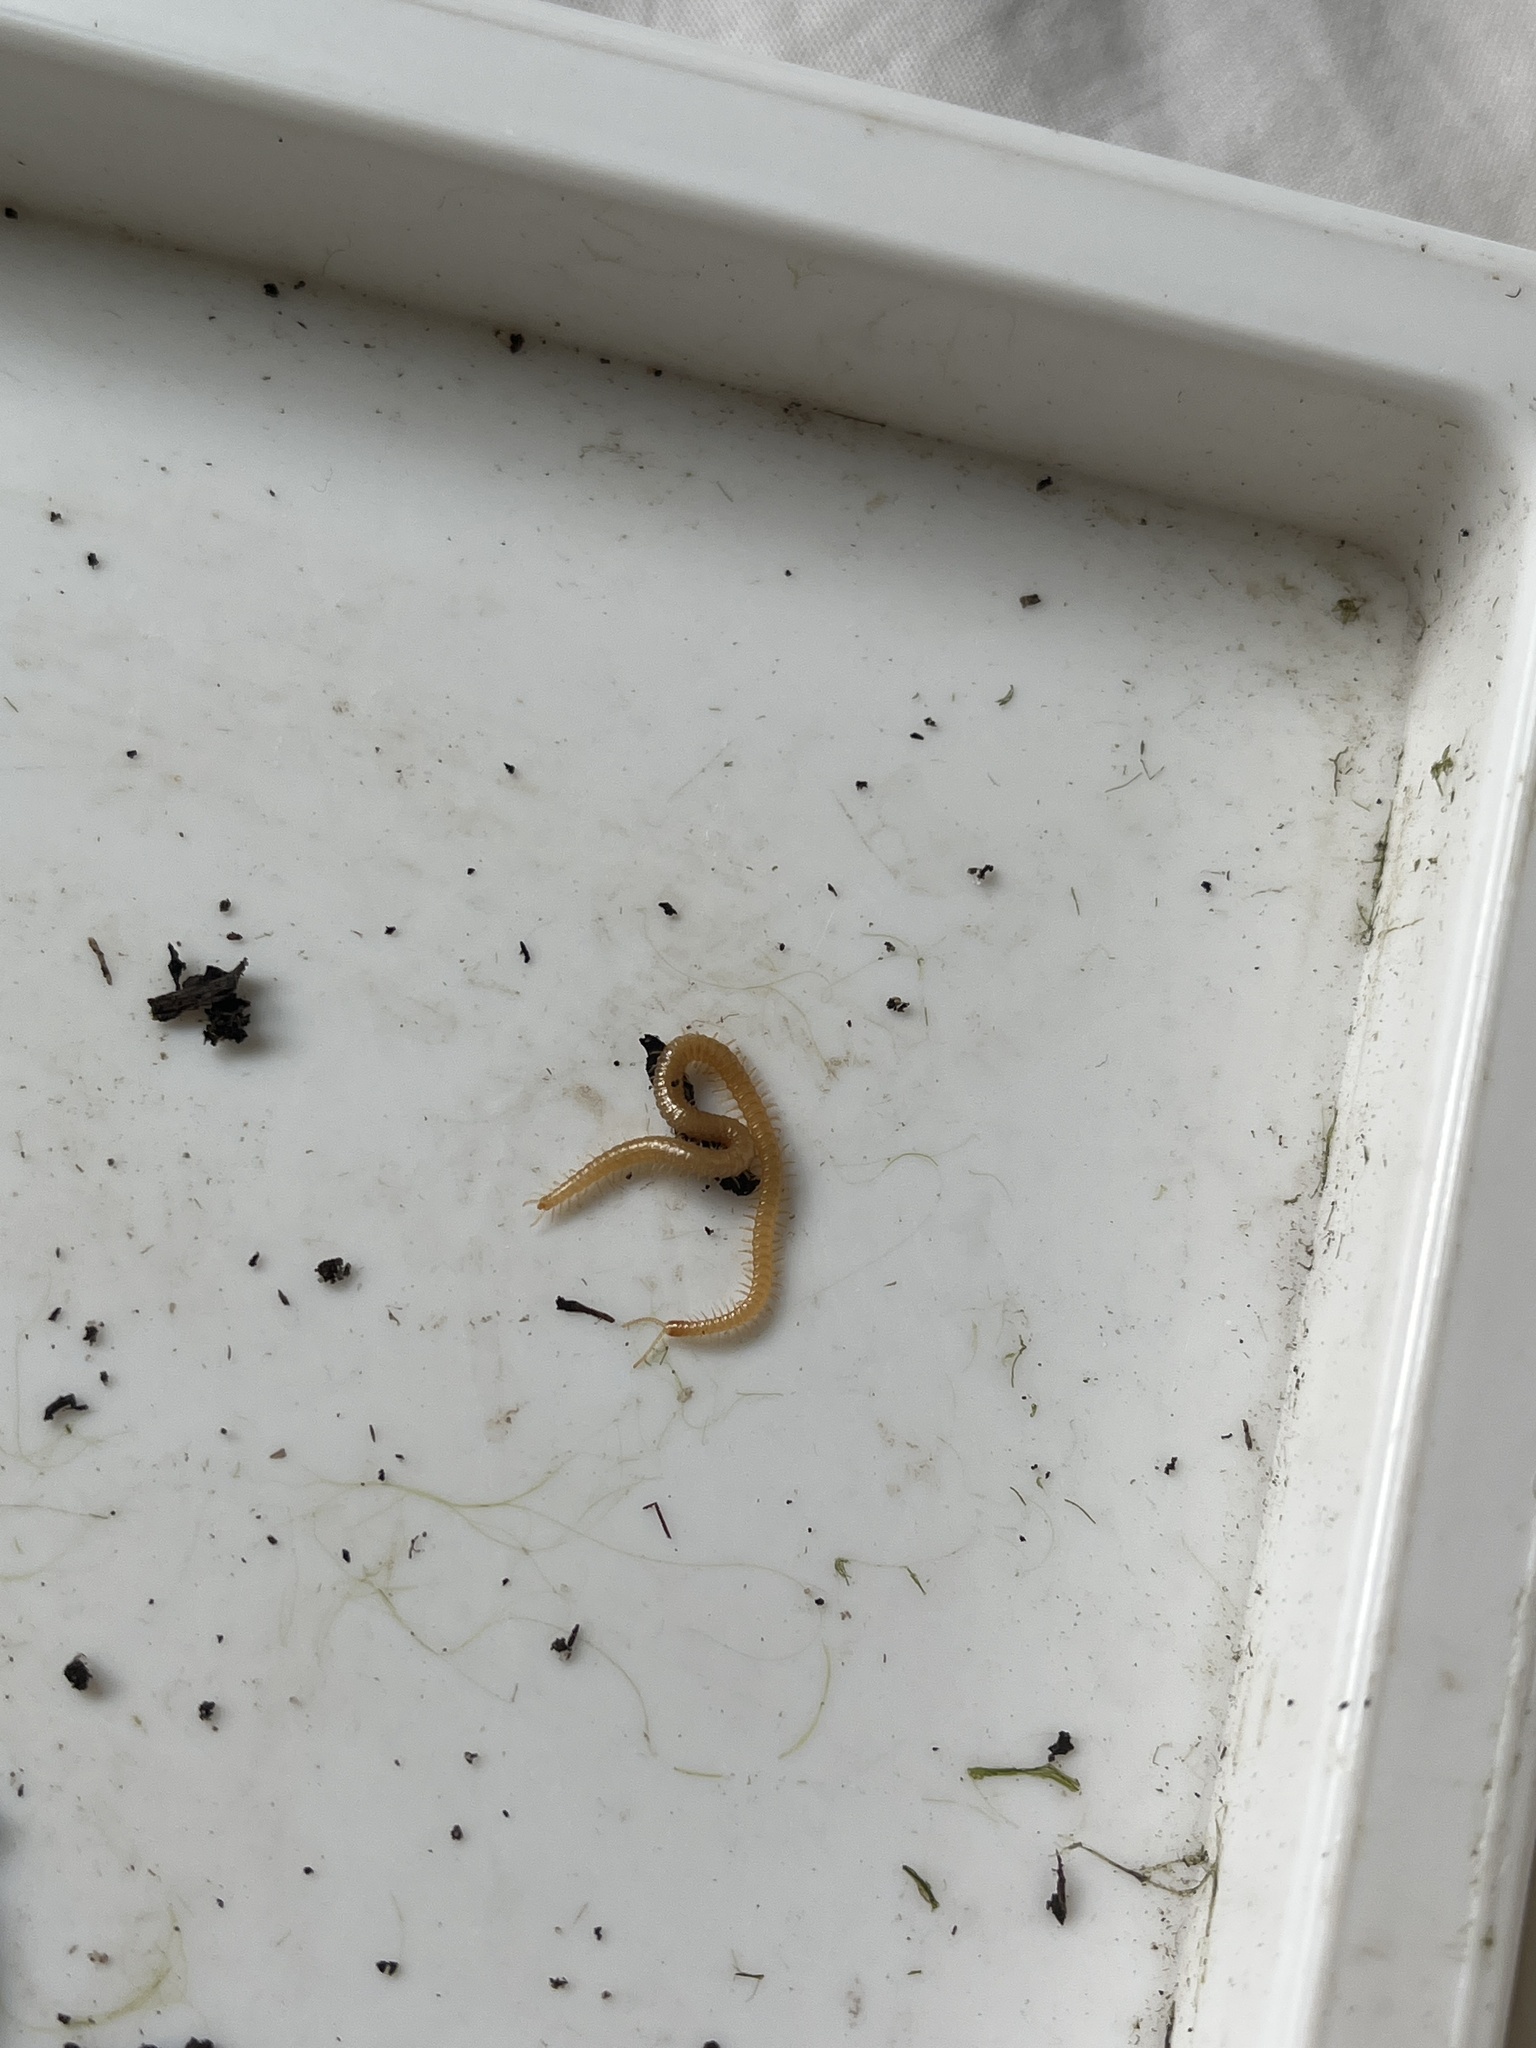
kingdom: Animalia
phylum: Arthropoda
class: Chilopoda
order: Geophilomorpha
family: Himantariidae
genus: Stigmatogaster
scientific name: Stigmatogaster subterranea
